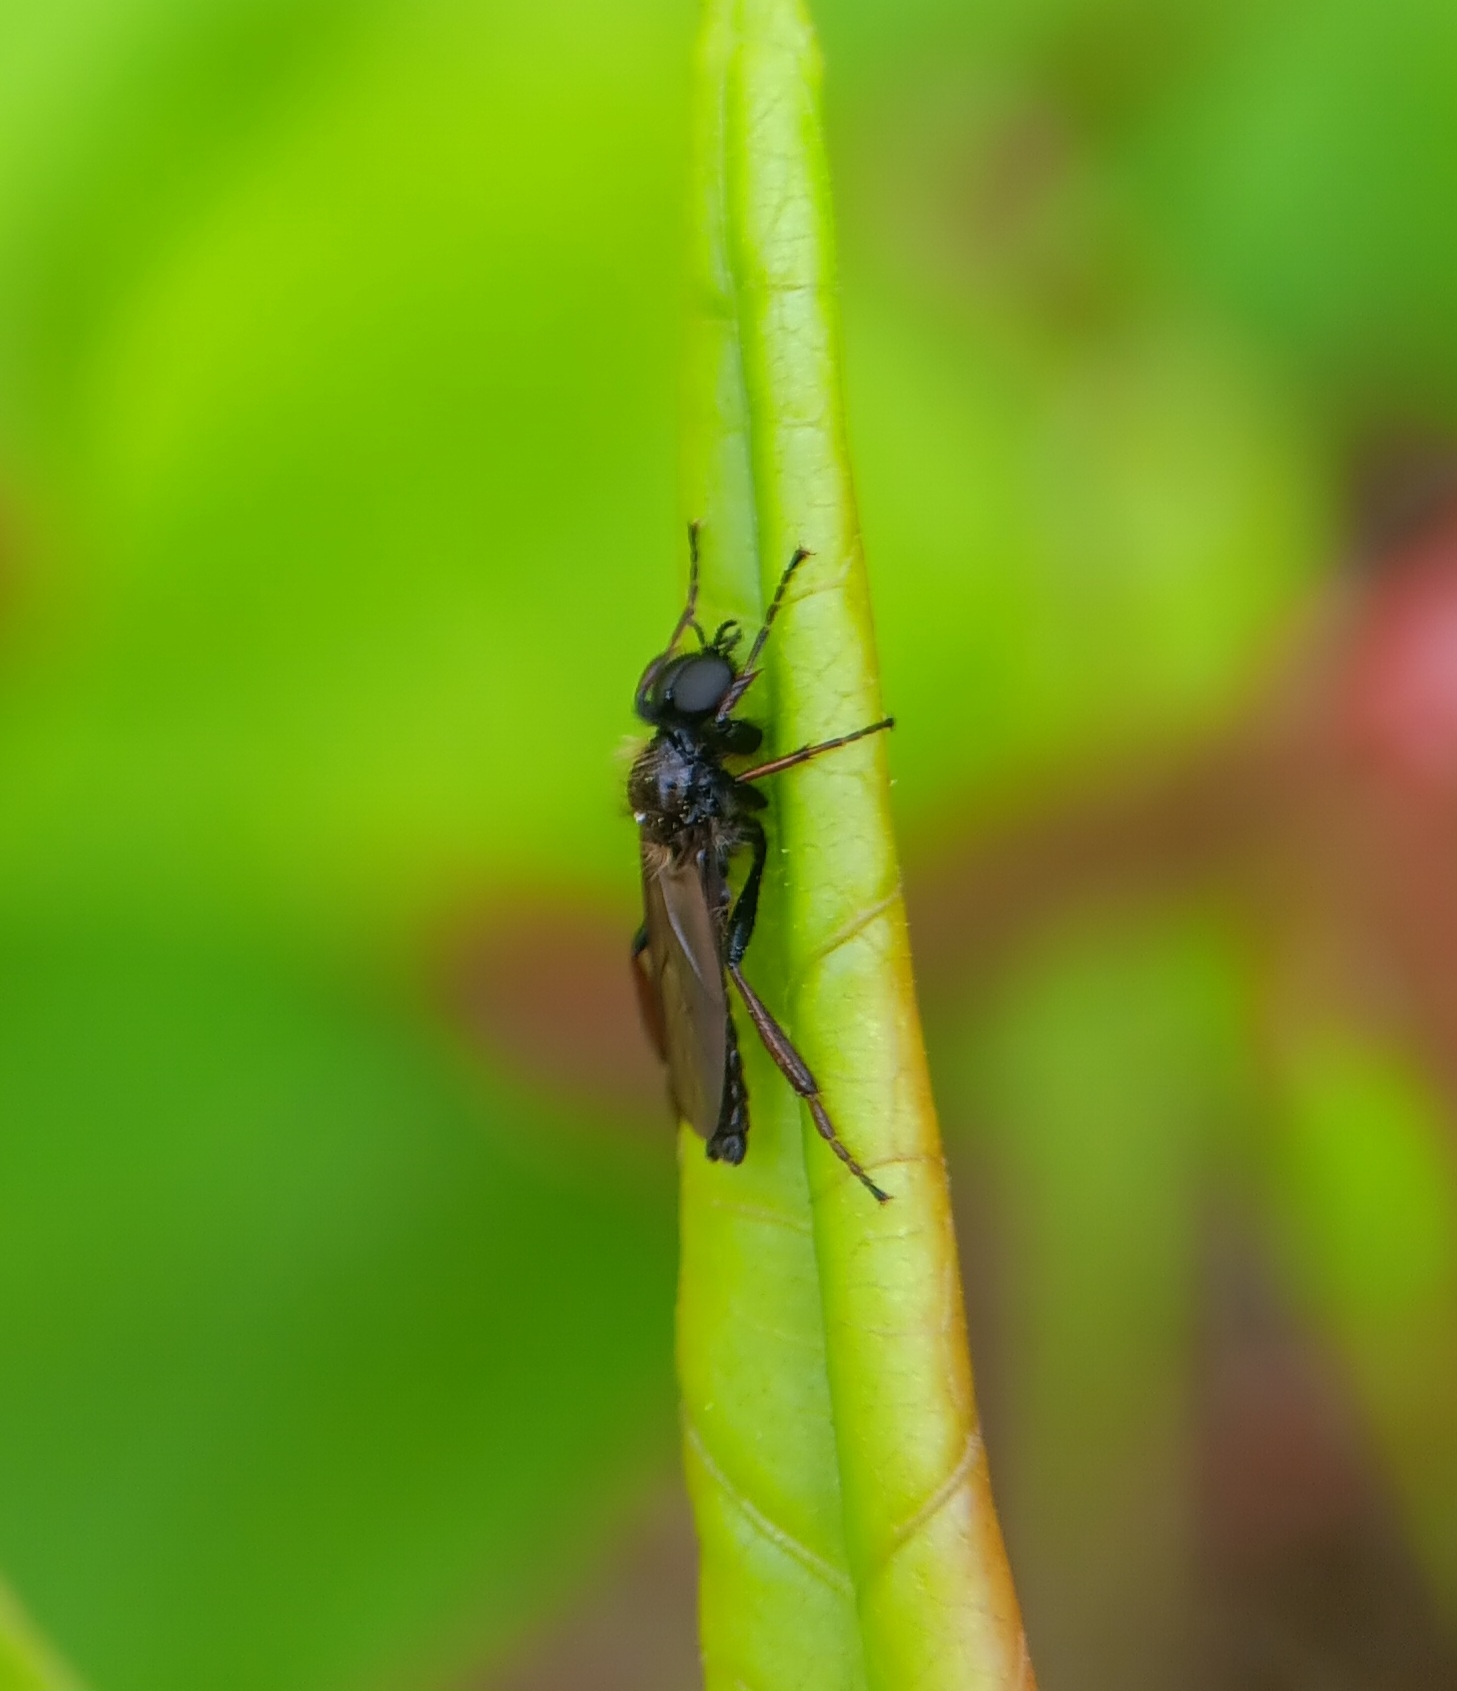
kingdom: Animalia
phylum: Arthropoda
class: Insecta
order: Diptera
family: Bibionidae
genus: Bibio
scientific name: Bibio lanigerus
